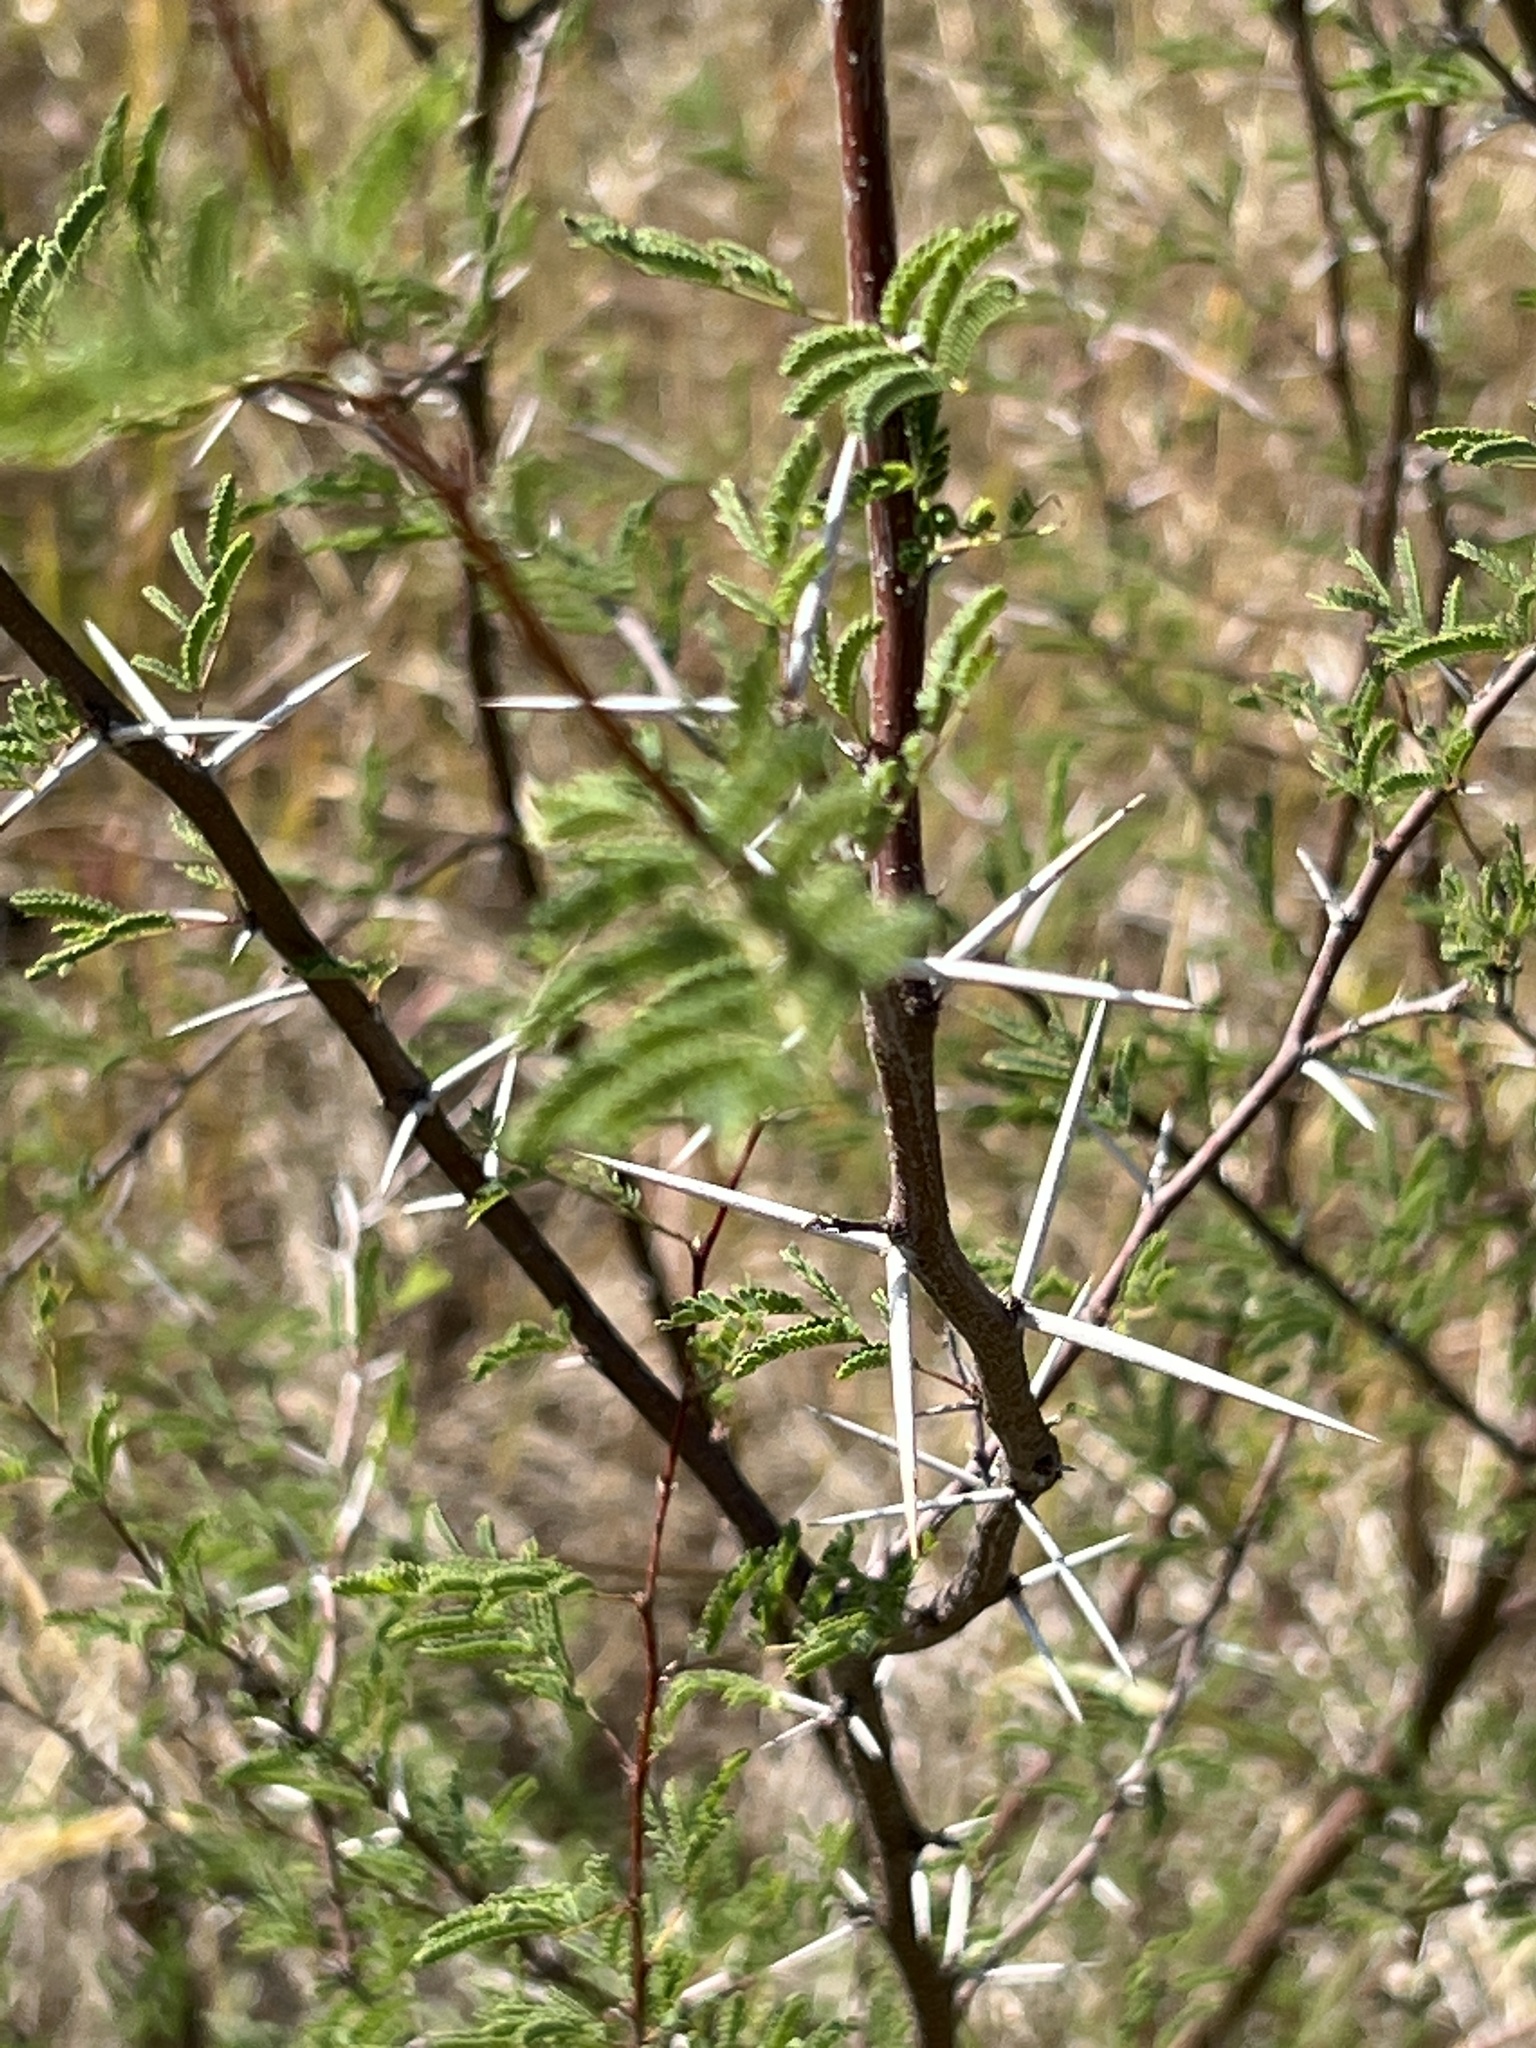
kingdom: Plantae
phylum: Tracheophyta
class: Magnoliopsida
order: Fabales
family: Fabaceae
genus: Vachellia
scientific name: Vachellia farnesiana
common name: Sweet acacia
